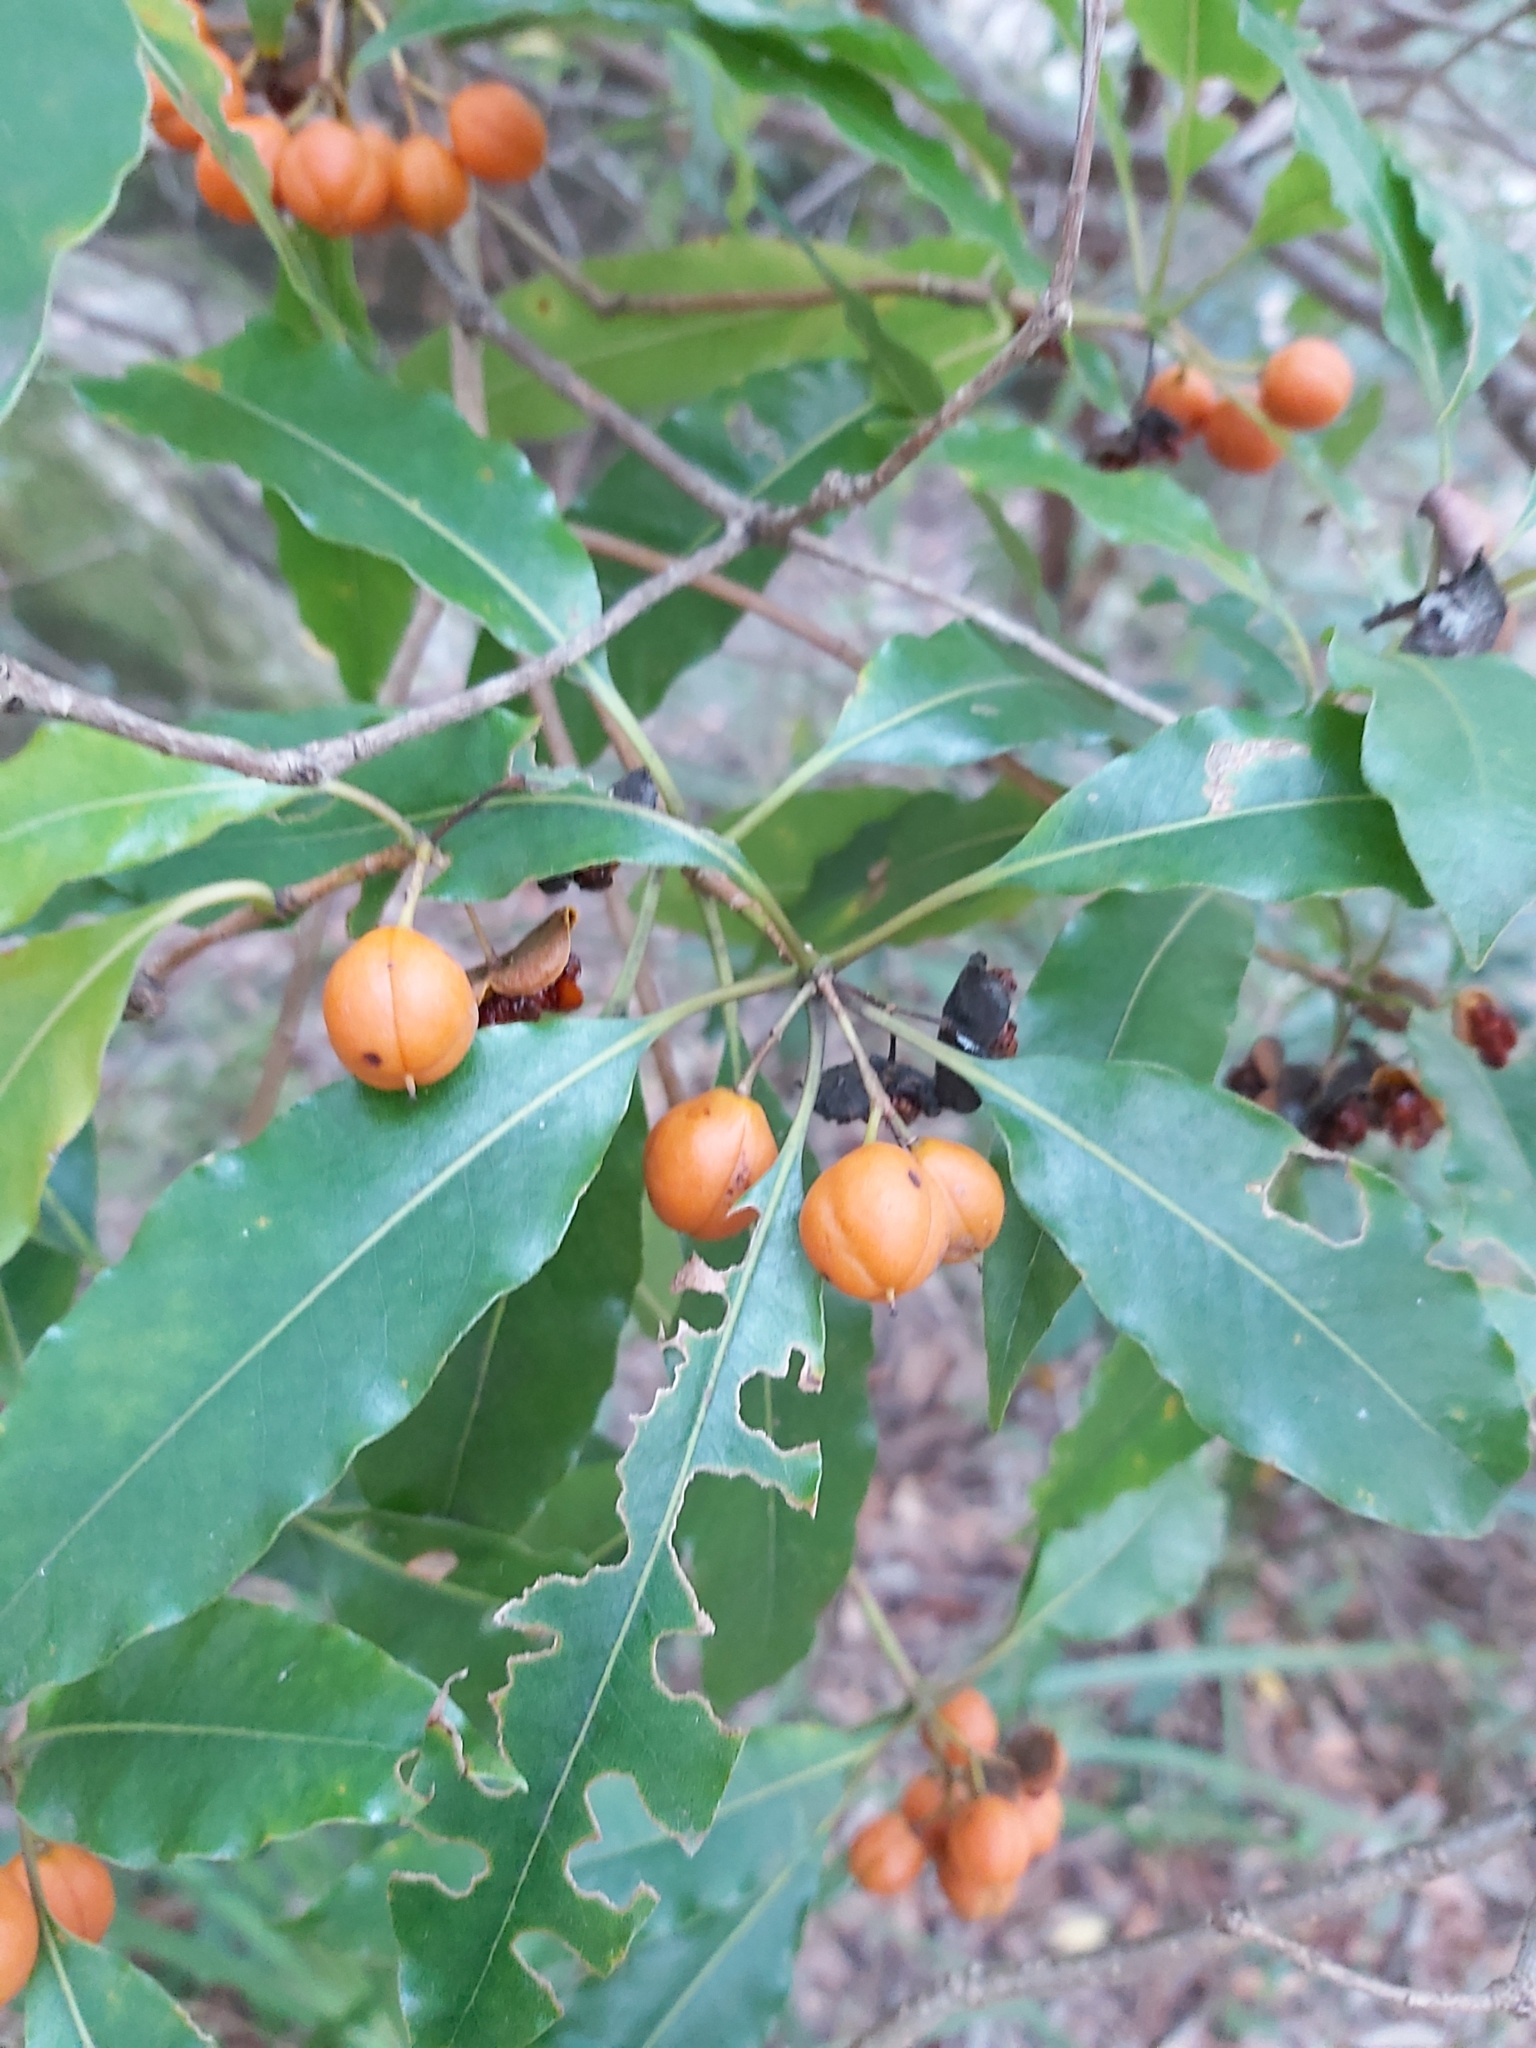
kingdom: Plantae
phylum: Tracheophyta
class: Magnoliopsida
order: Apiales
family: Pittosporaceae
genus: Pittosporum
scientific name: Pittosporum undulatum
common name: Australian cheesewood
